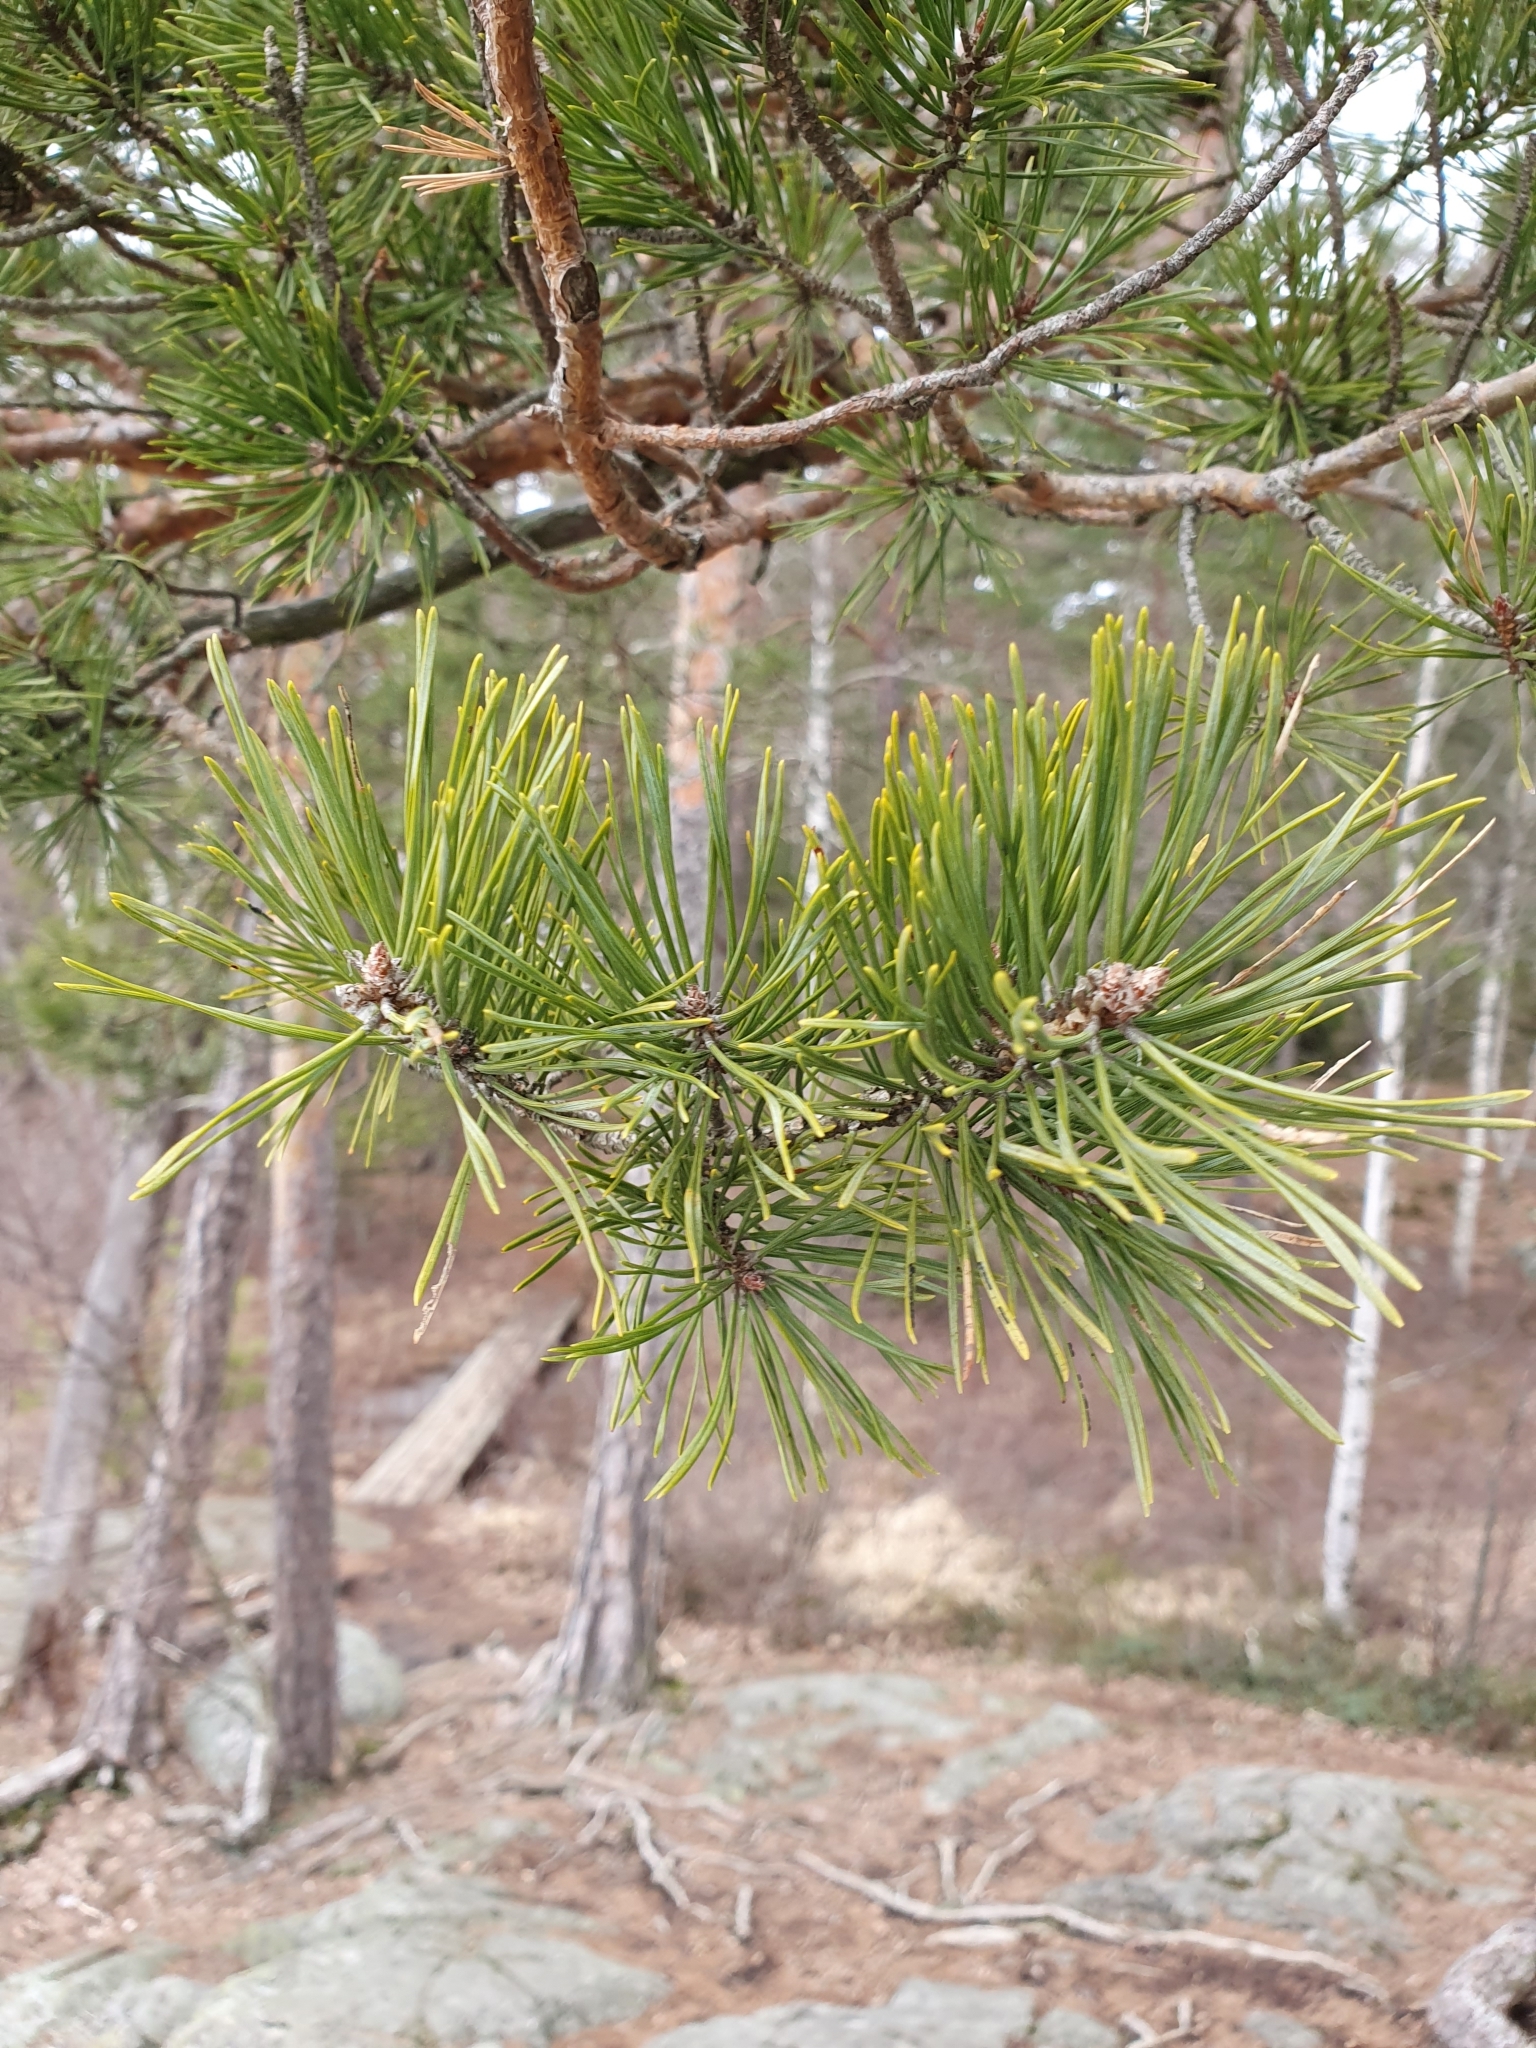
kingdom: Plantae
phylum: Tracheophyta
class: Pinopsida
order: Pinales
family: Pinaceae
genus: Pinus
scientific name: Pinus sylvestris
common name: Scots pine
